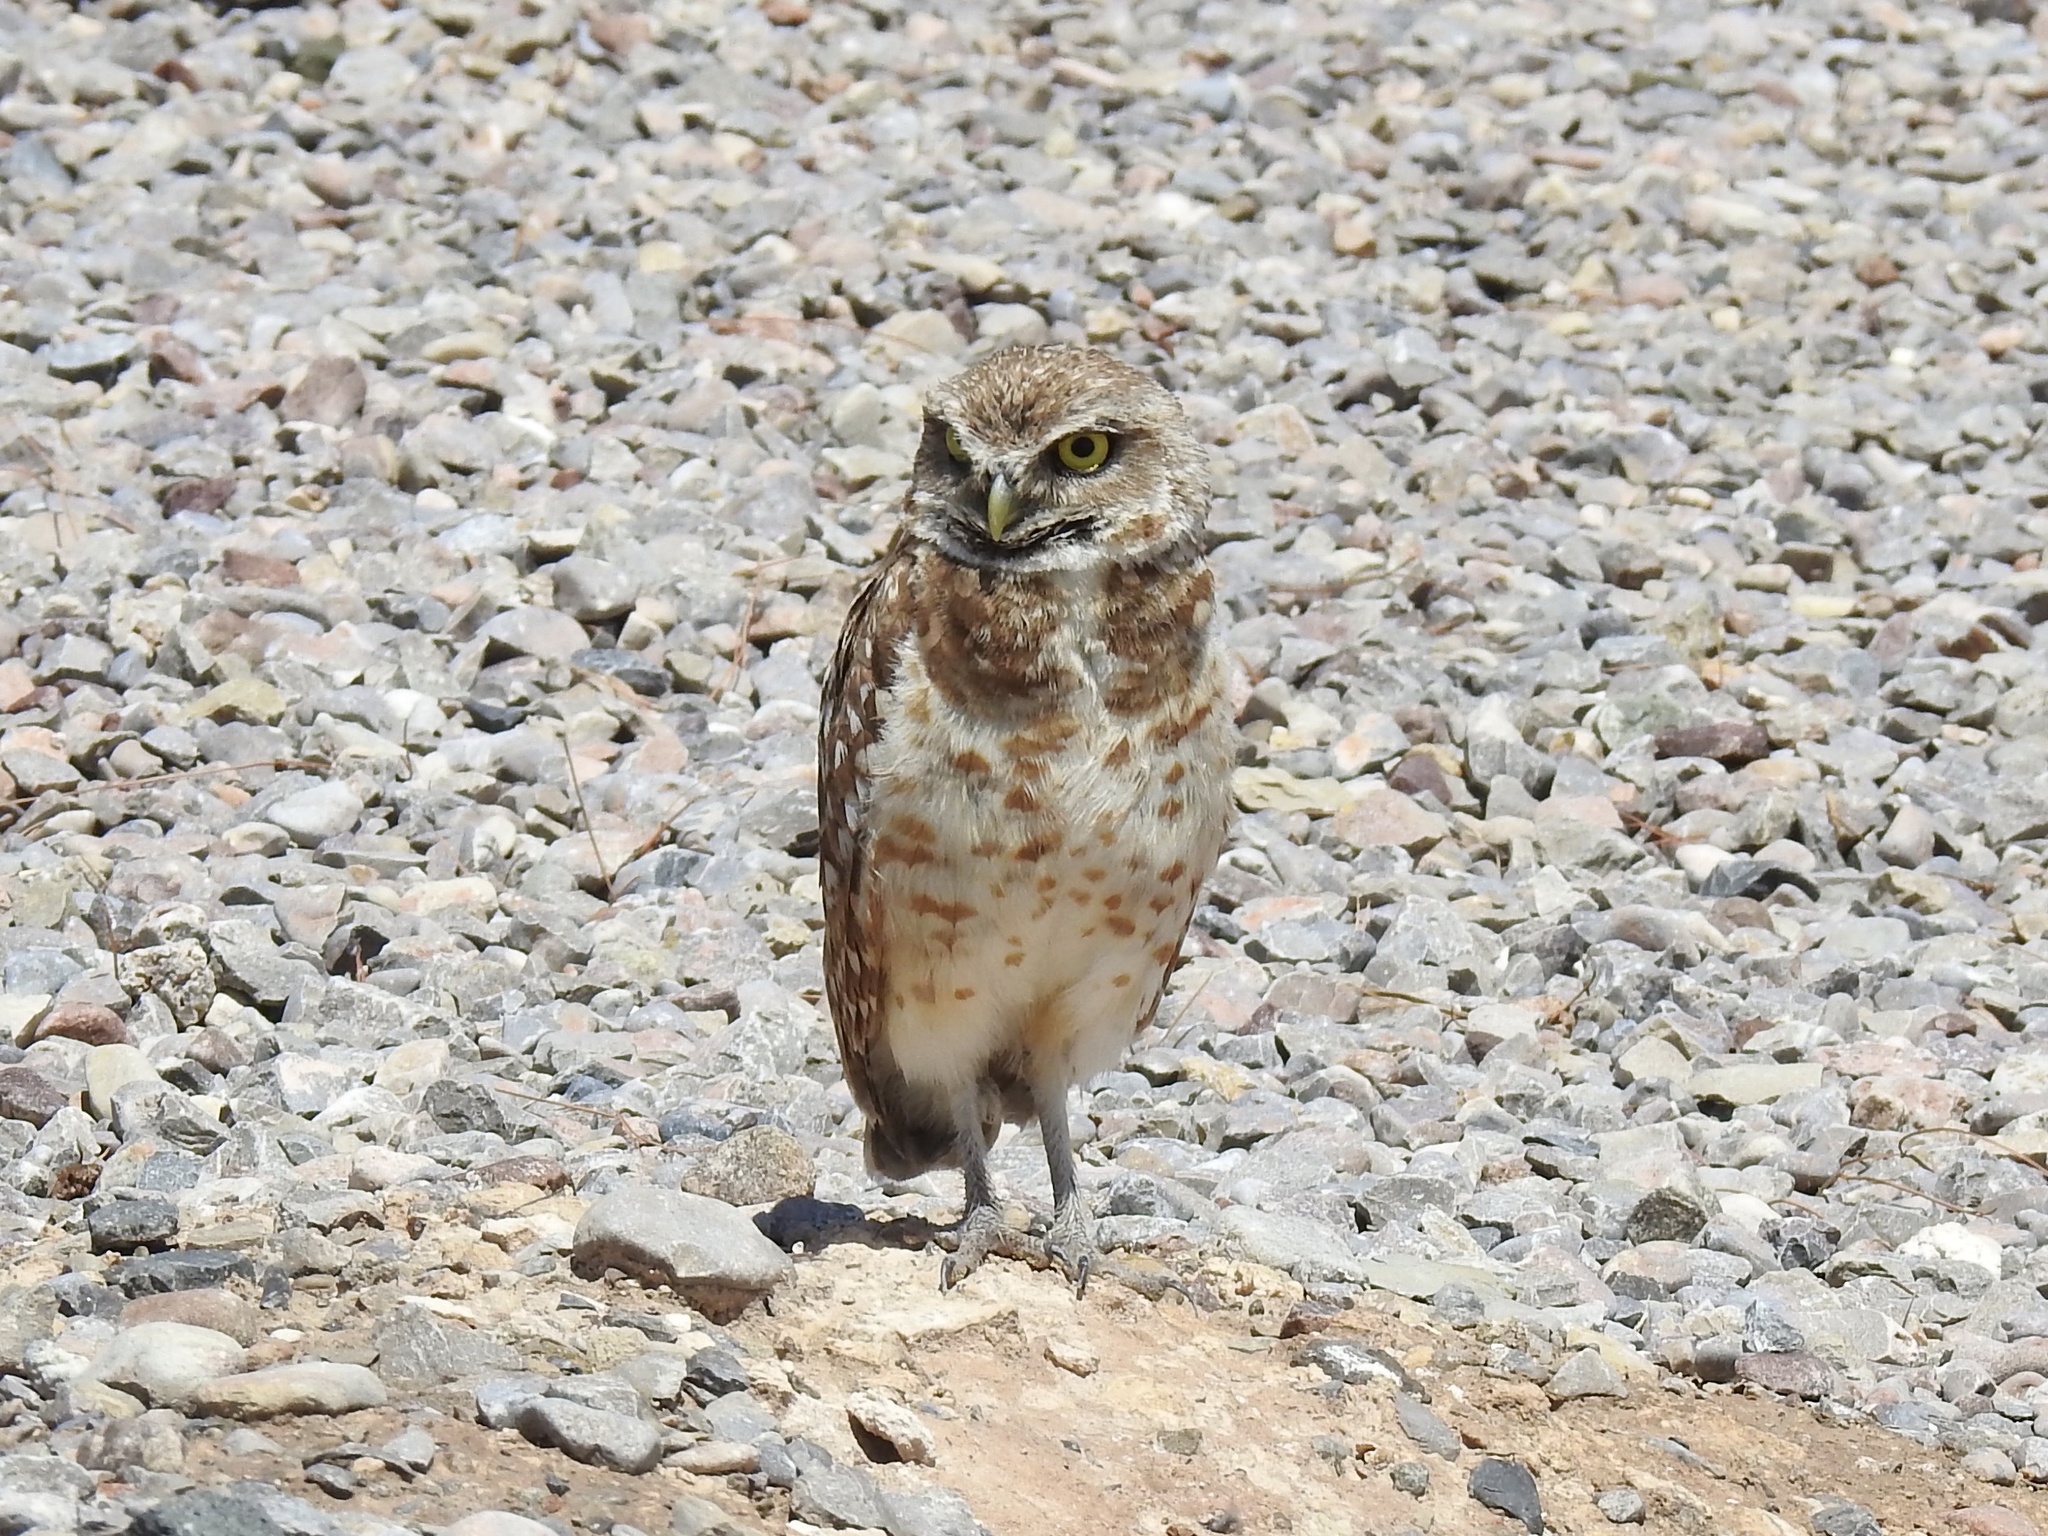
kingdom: Animalia
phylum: Chordata
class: Aves
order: Strigiformes
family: Strigidae
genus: Athene
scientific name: Athene cunicularia
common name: Burrowing owl
